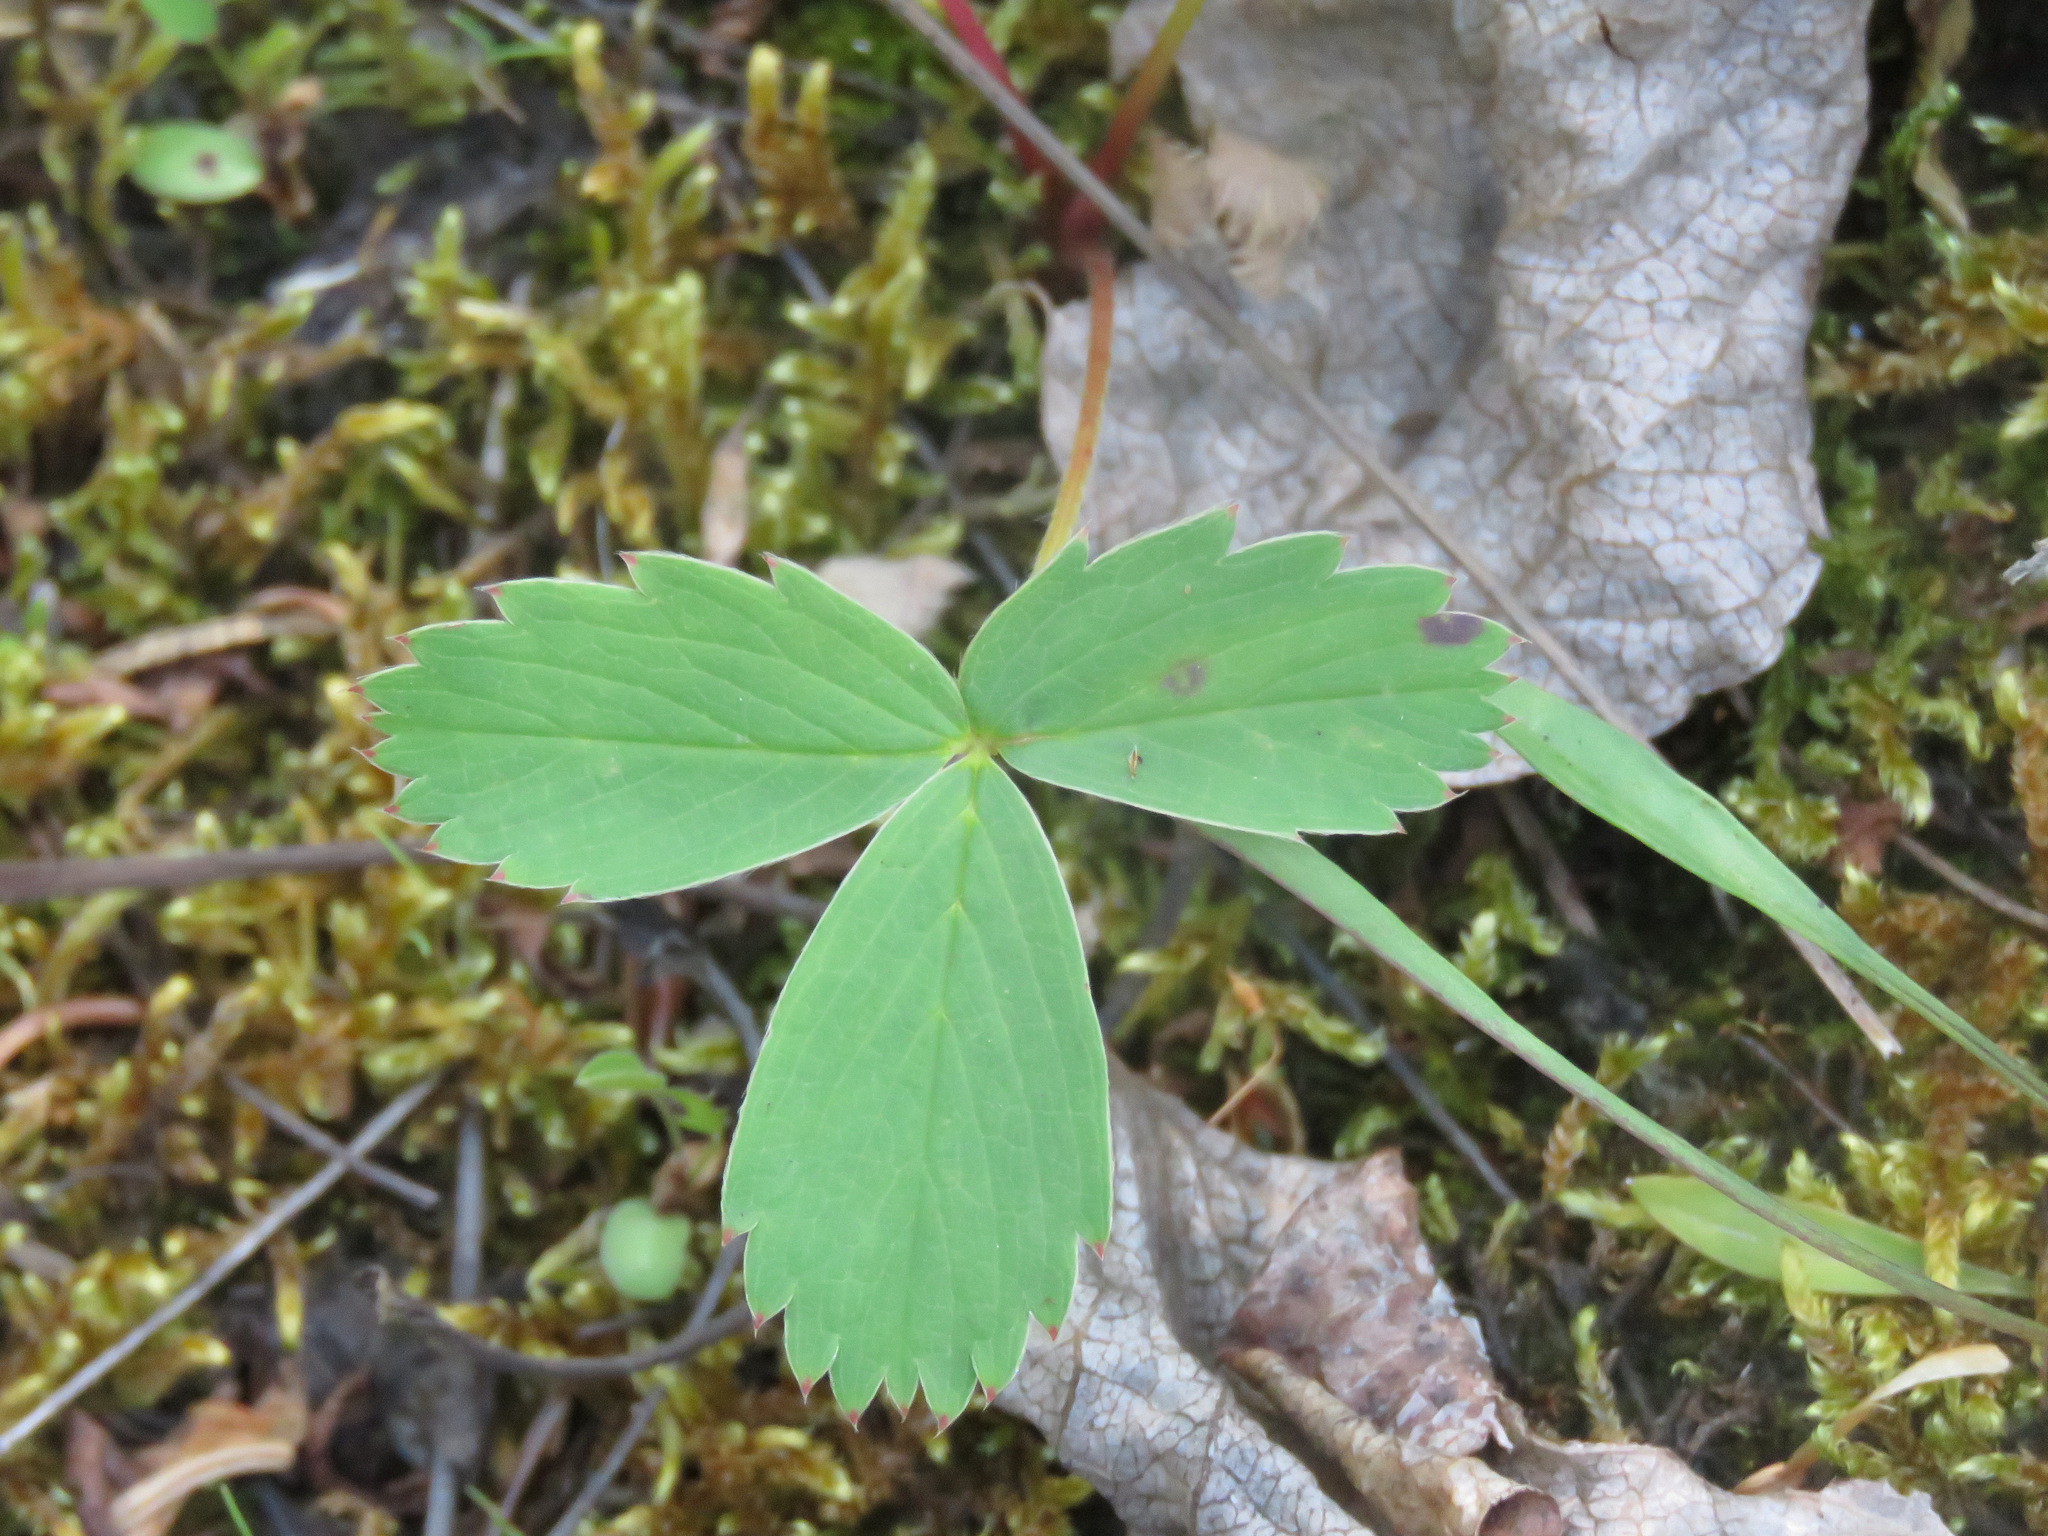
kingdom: Plantae
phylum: Tracheophyta
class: Magnoliopsida
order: Rosales
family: Rosaceae
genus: Fragaria
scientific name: Fragaria virginiana
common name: Thickleaved wild strawberry
